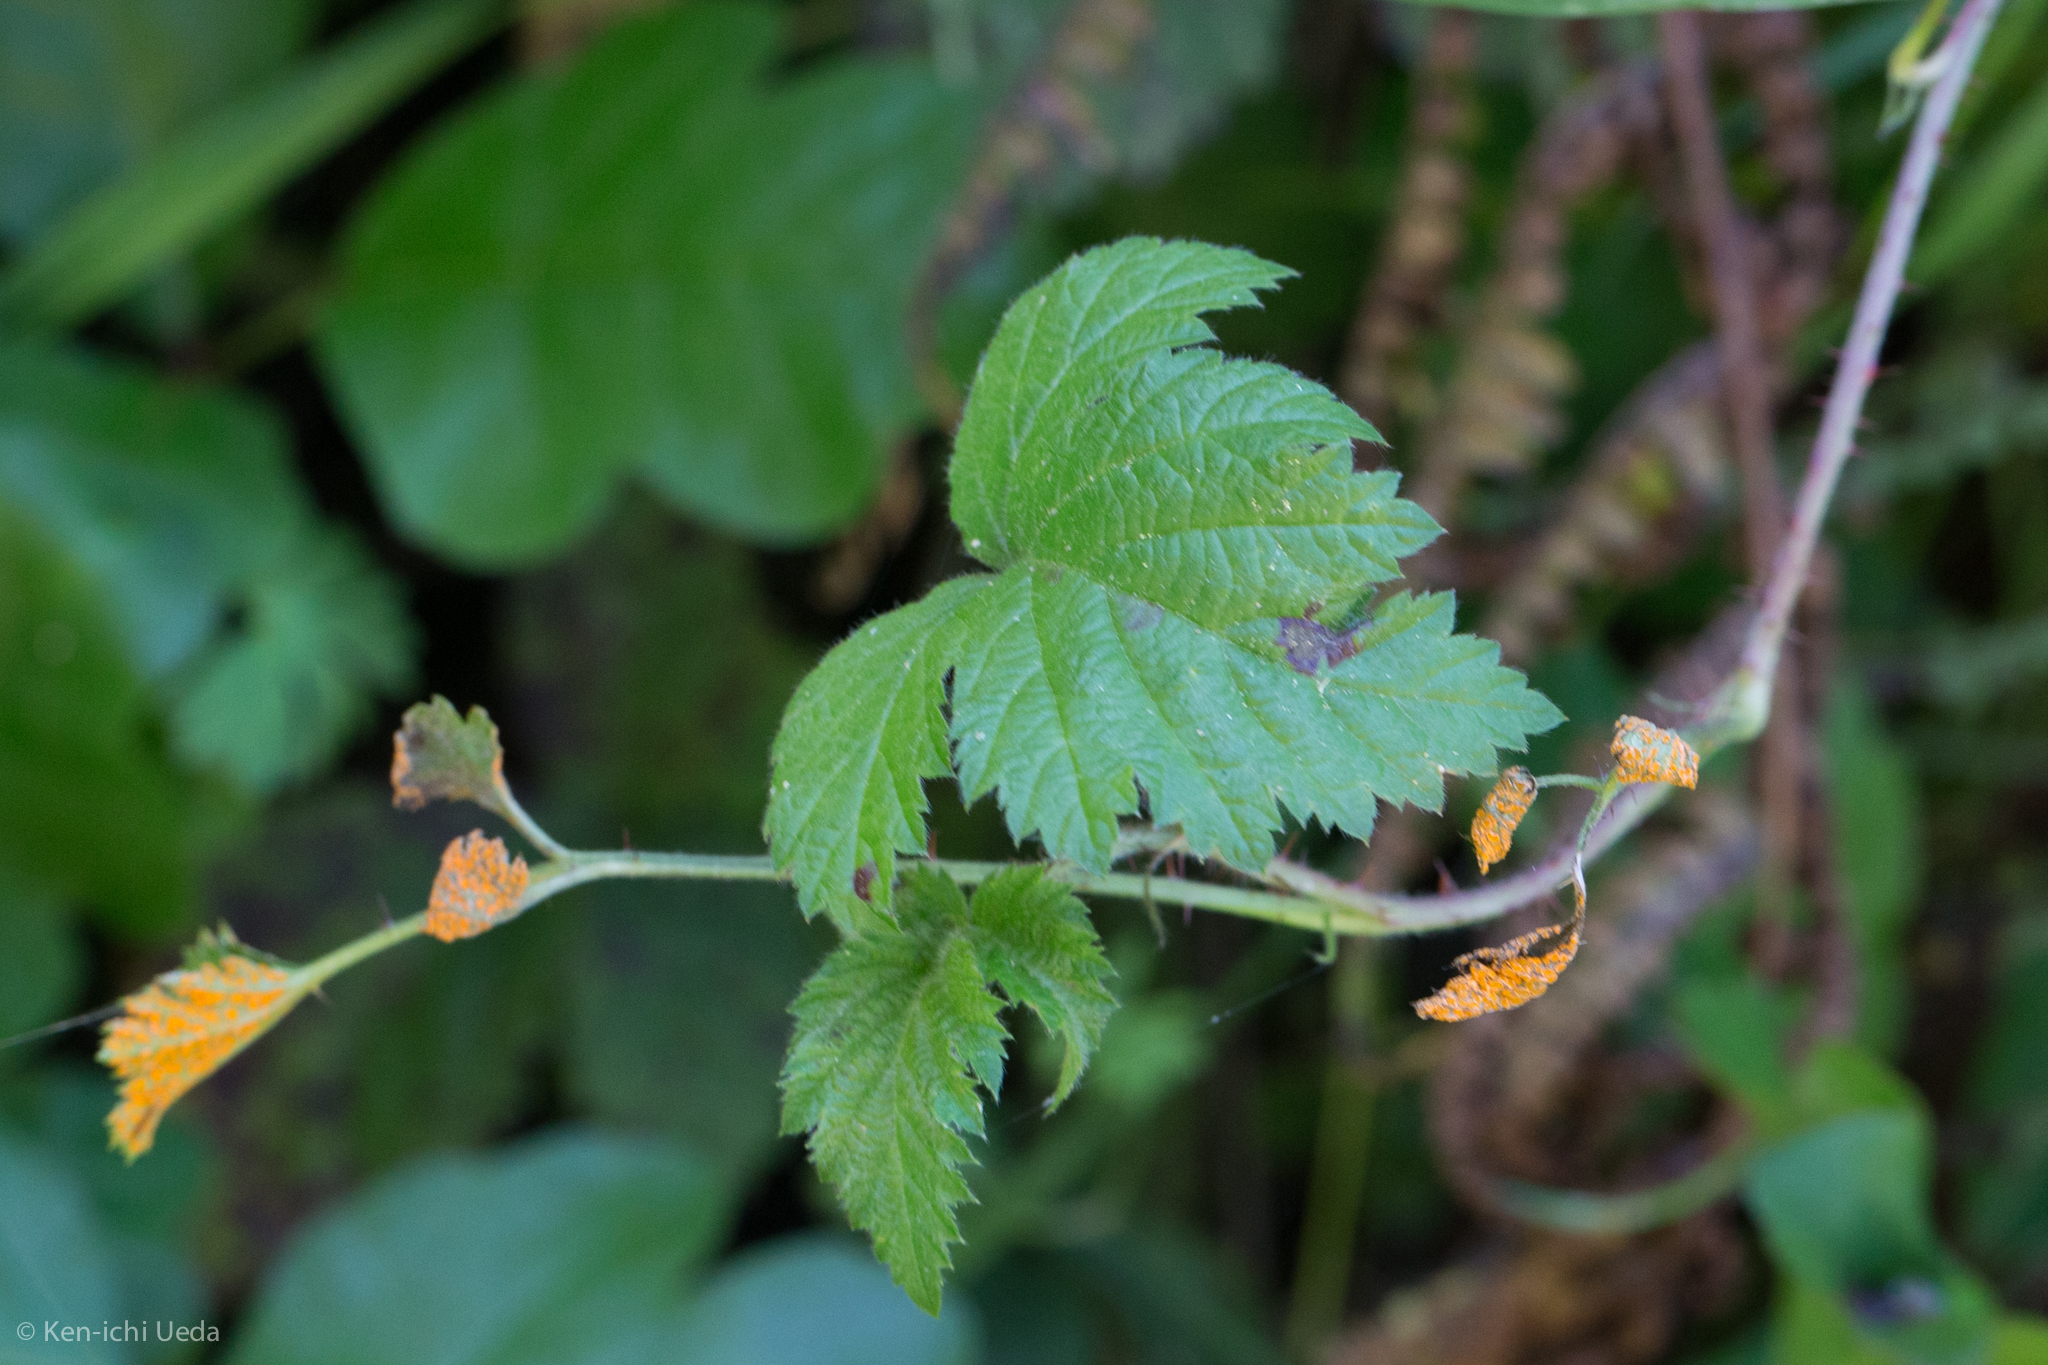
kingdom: Plantae
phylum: Tracheophyta
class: Magnoliopsida
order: Rosales
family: Rosaceae
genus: Rubus
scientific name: Rubus ursinus
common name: Pacific blackberry
